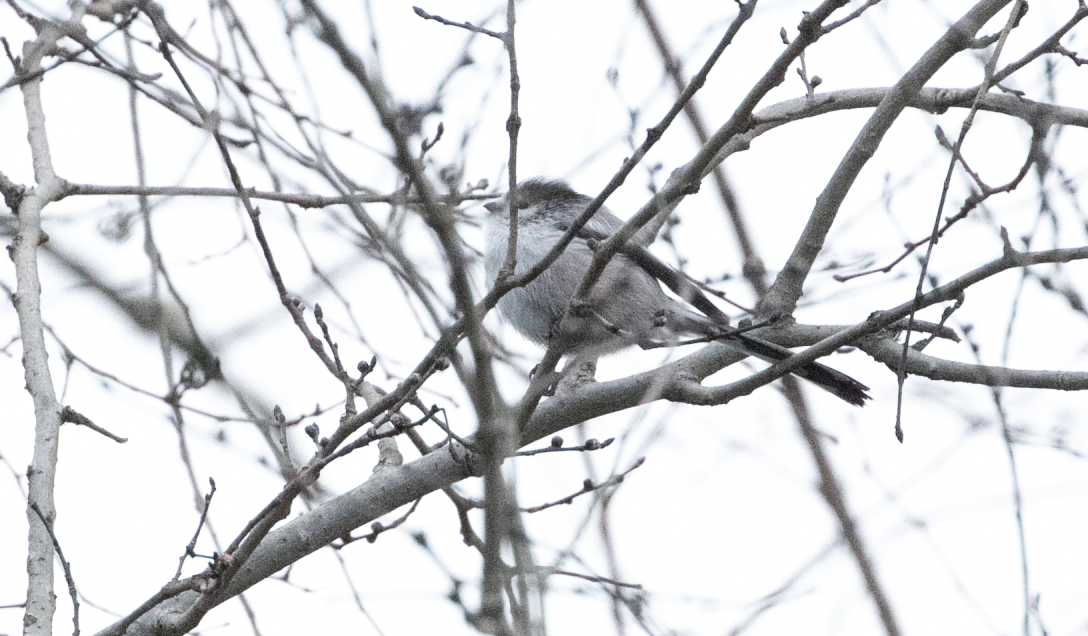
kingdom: Animalia
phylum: Chordata
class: Aves
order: Passeriformes
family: Aegithalidae
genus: Aegithalos
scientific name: Aegithalos caudatus
